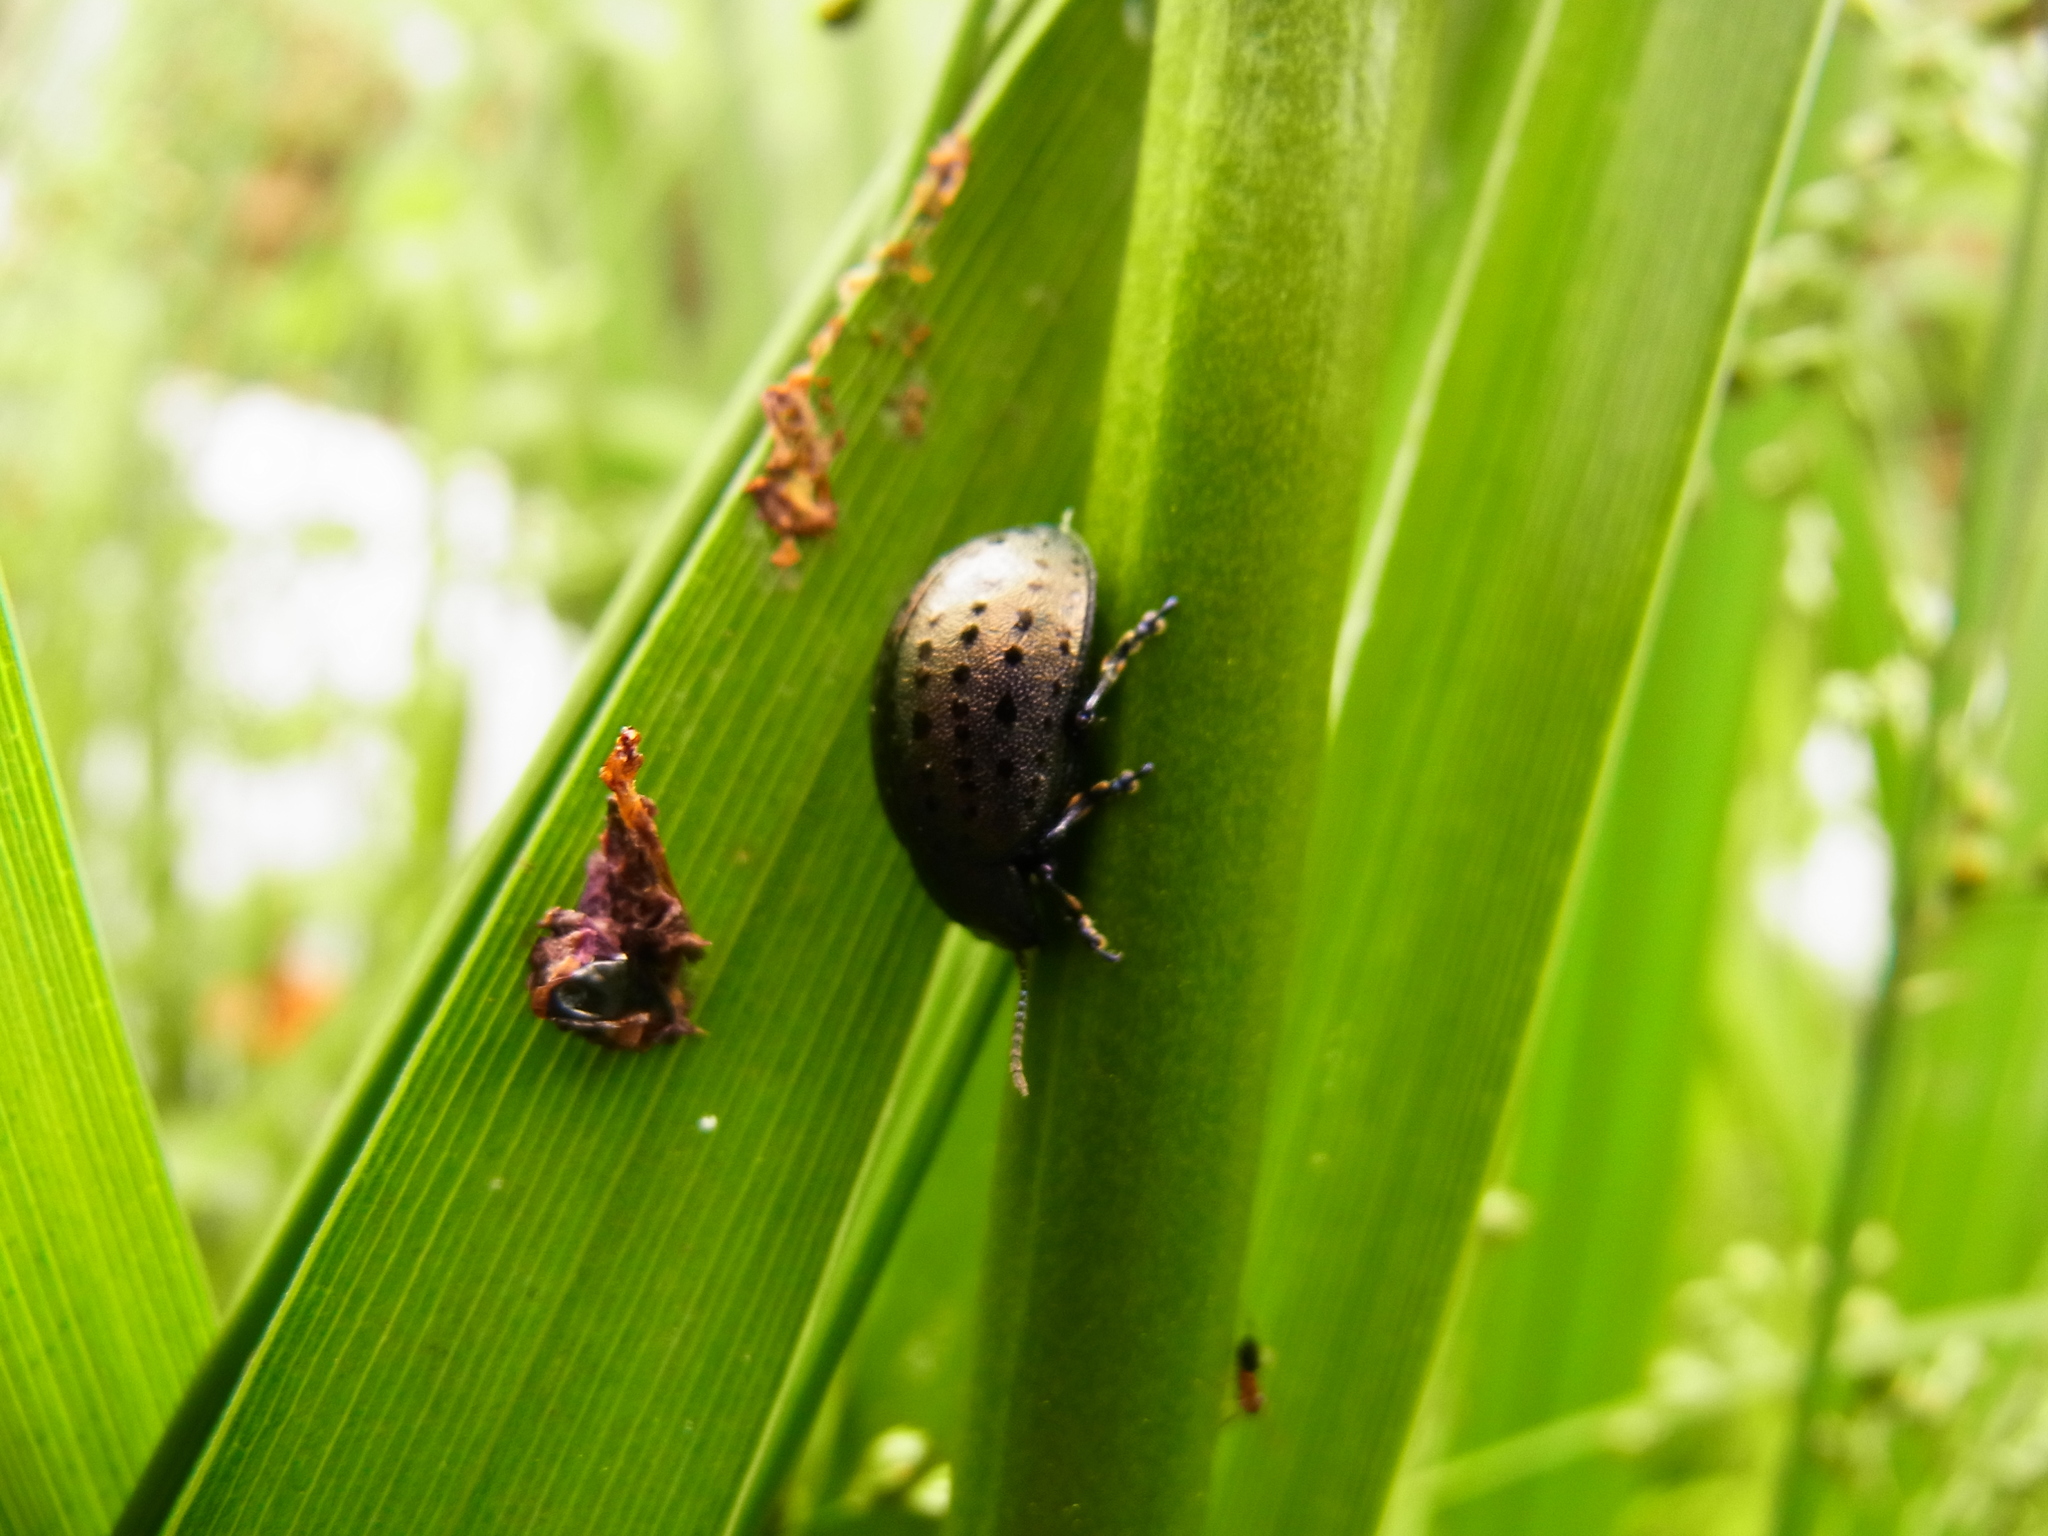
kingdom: Animalia
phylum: Arthropoda
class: Insecta
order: Coleoptera
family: Chrysomelidae
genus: Chrysolina
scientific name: Chrysolina
